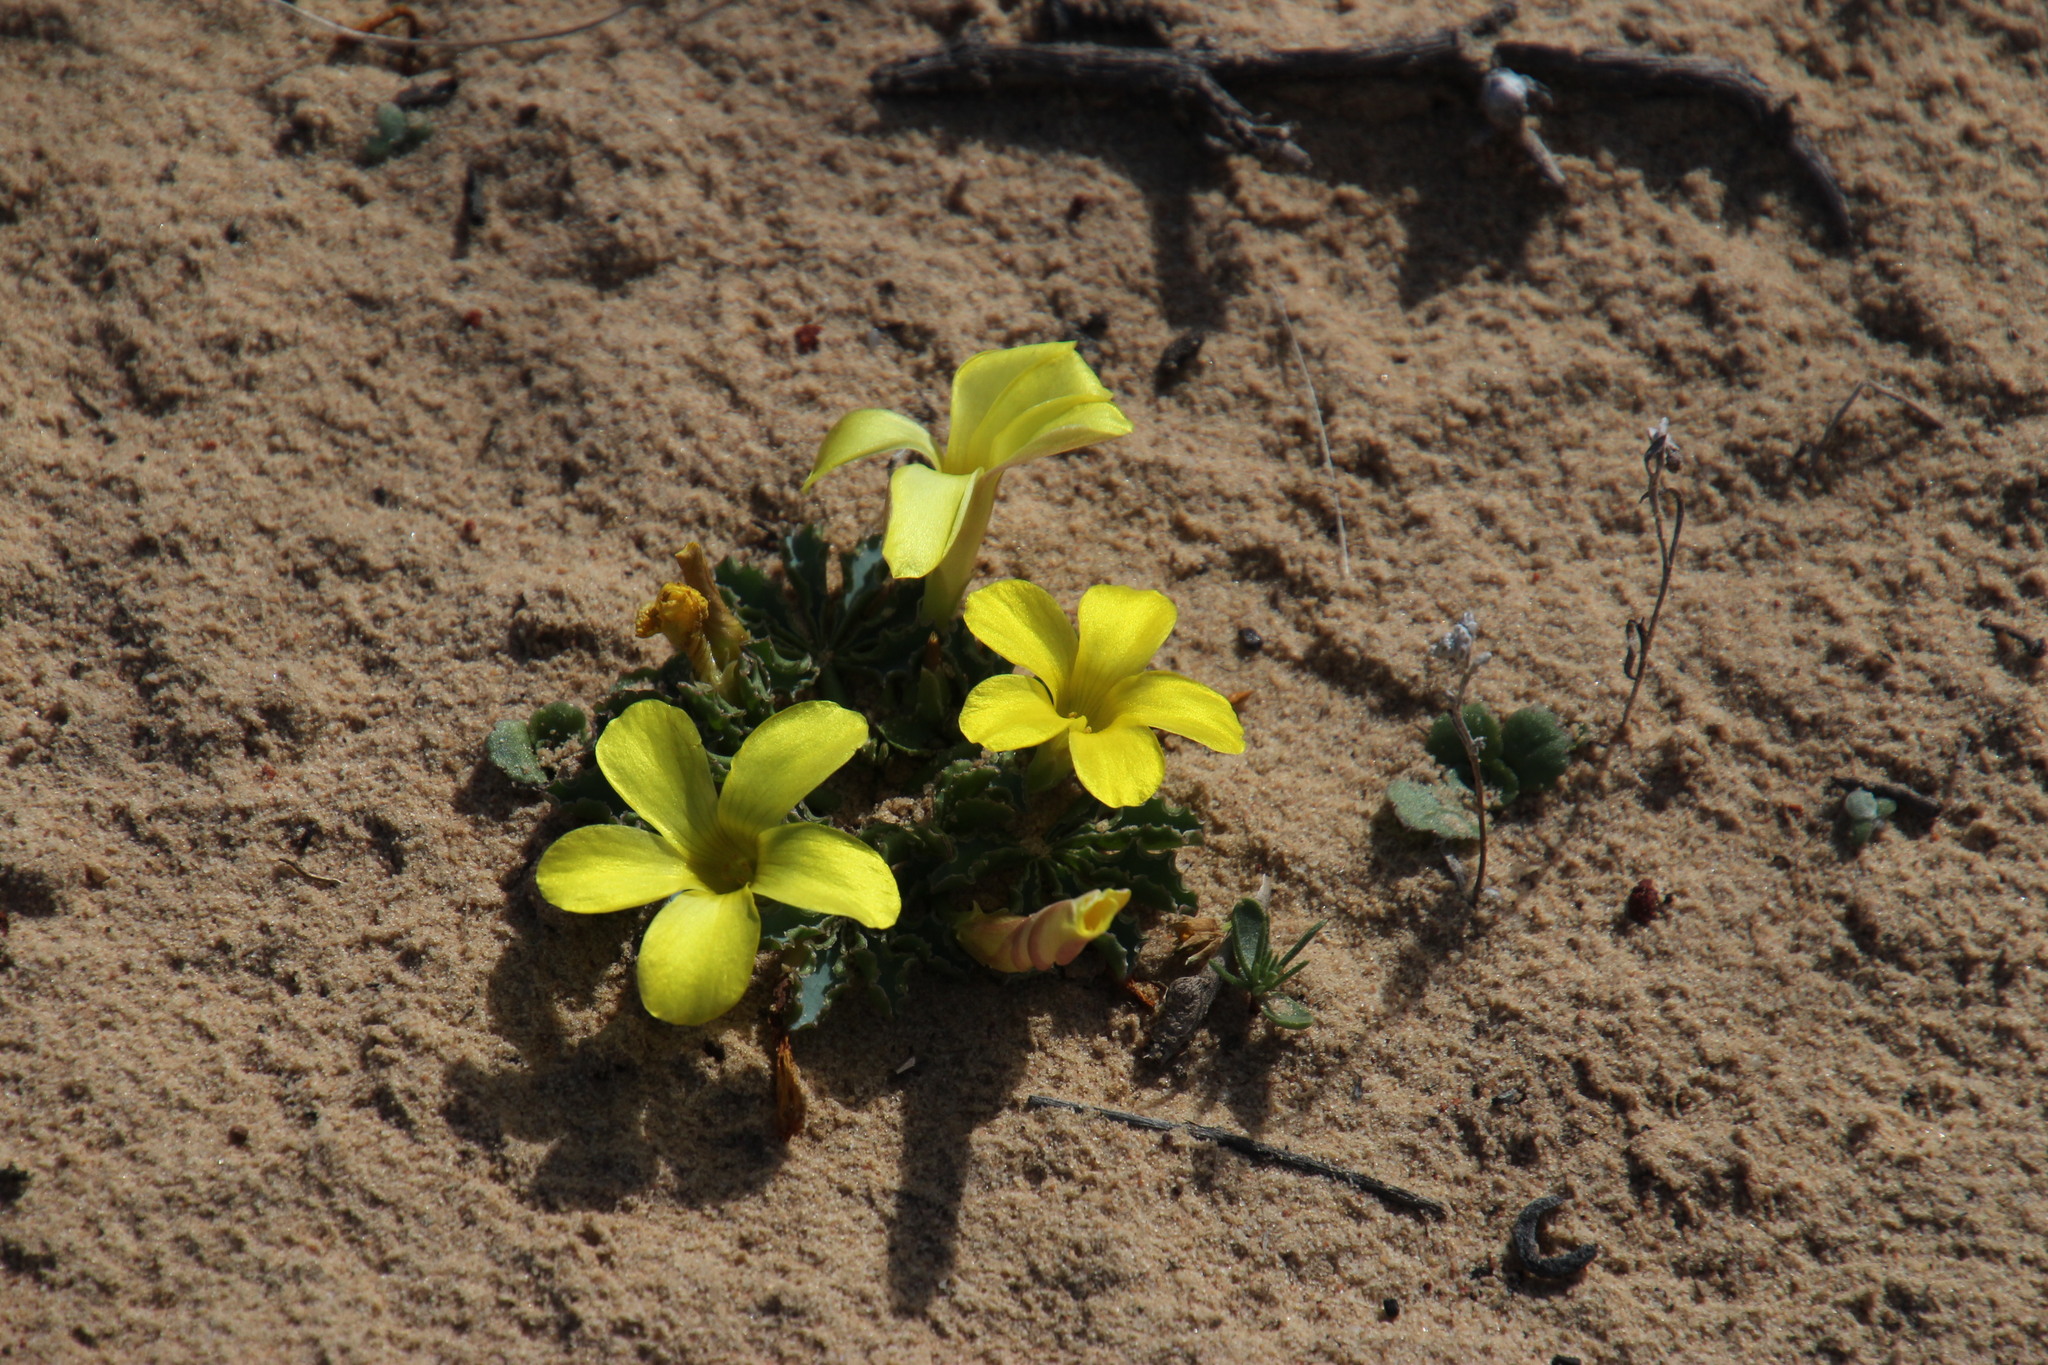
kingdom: Plantae
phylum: Tracheophyta
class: Magnoliopsida
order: Oxalidales
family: Oxalidaceae
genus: Oxalis
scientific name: Oxalis flava
